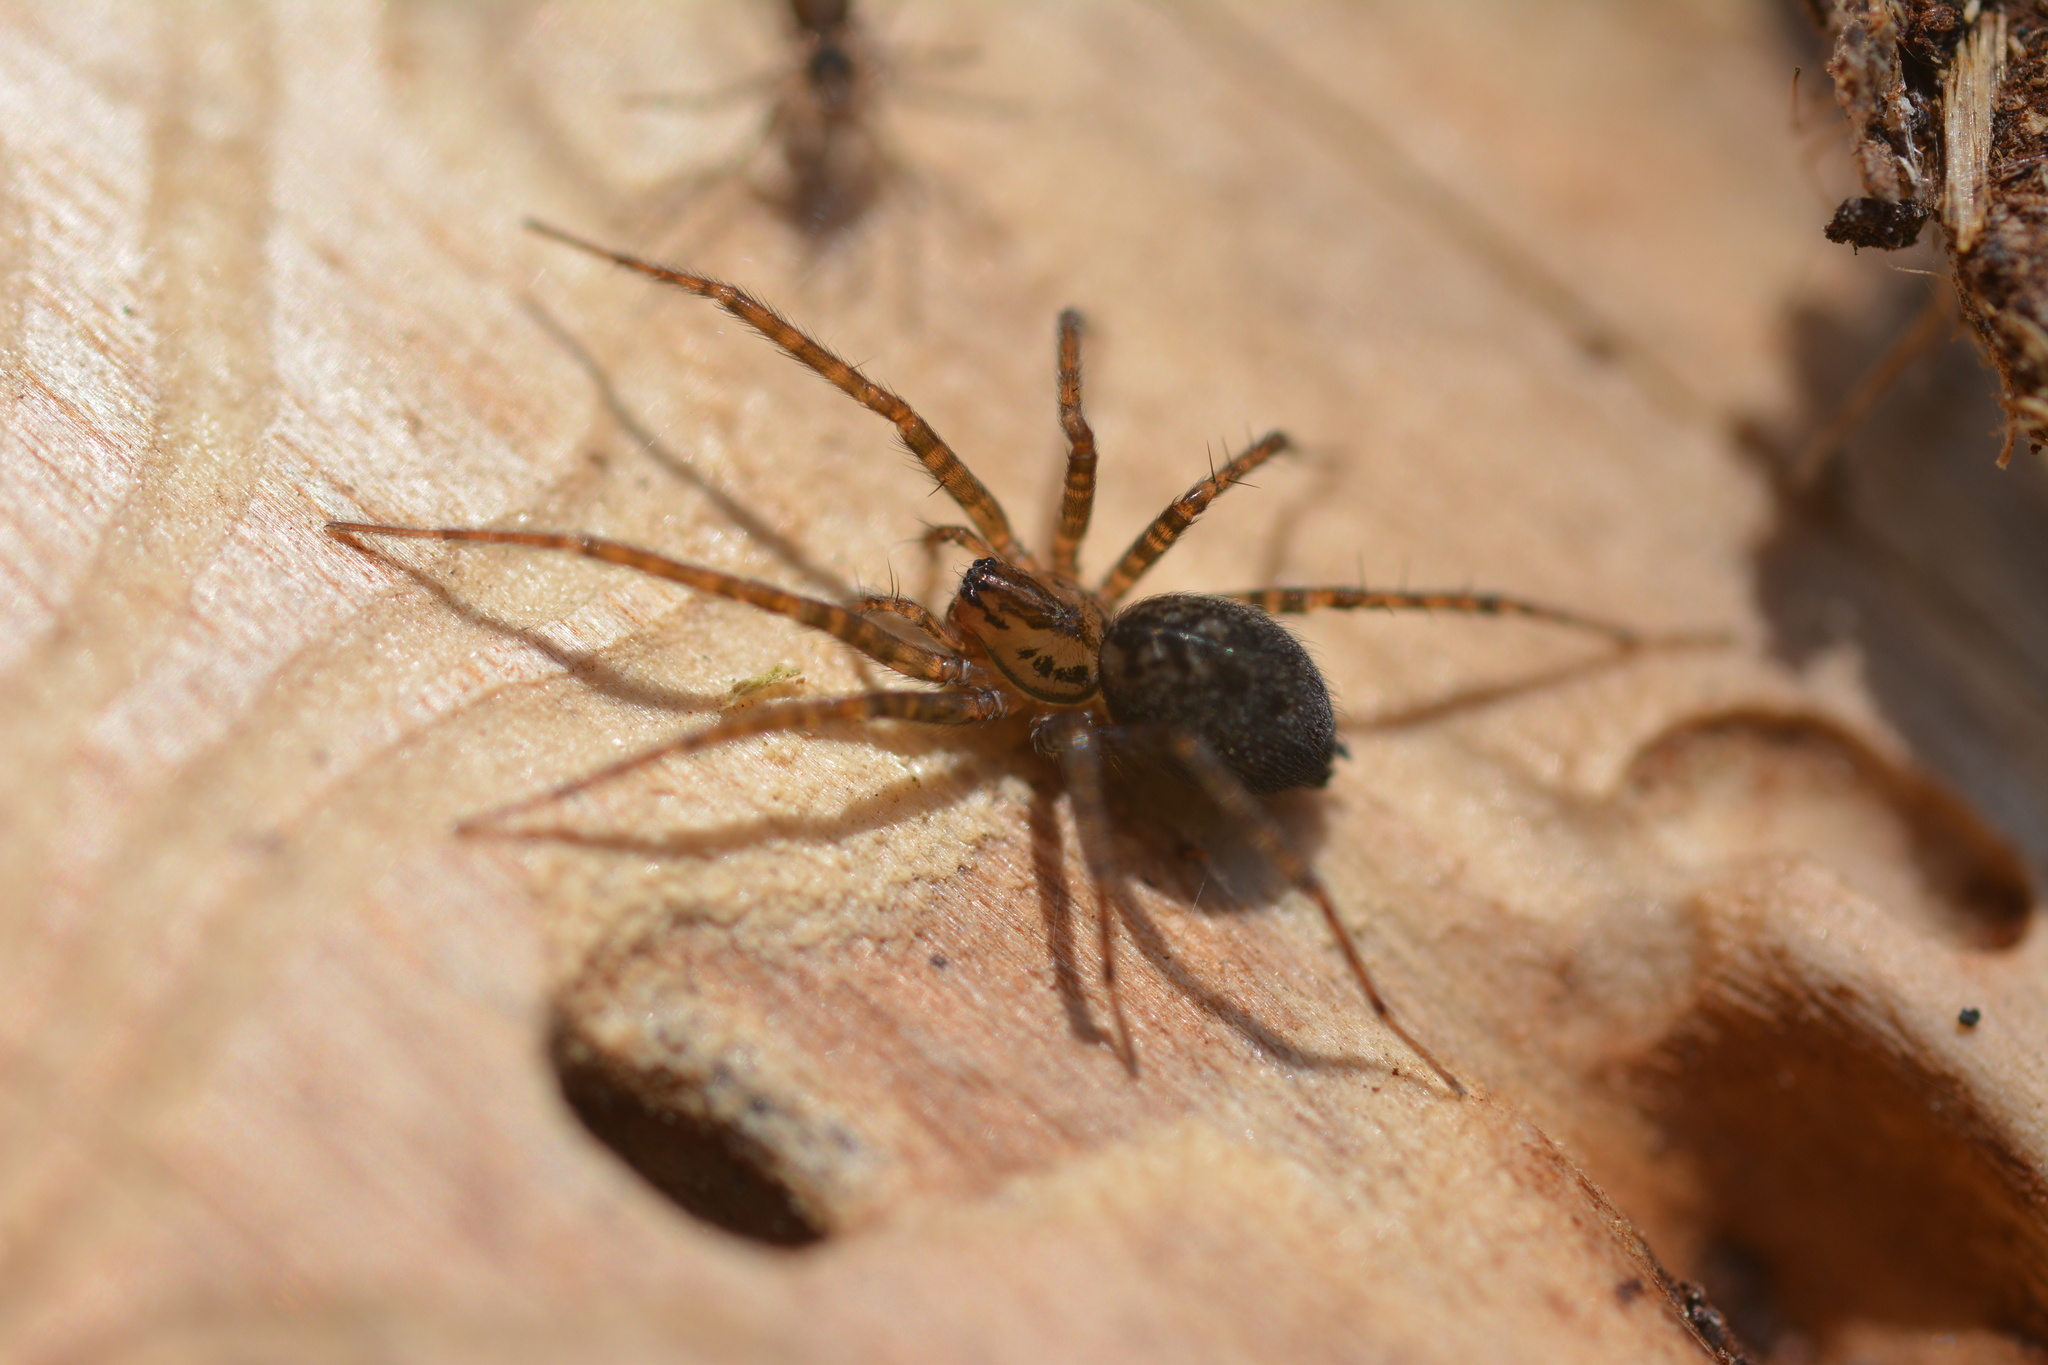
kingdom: Animalia
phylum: Arthropoda
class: Arachnida
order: Araneae
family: Cybaeidae
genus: Calymmaria
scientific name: Calymmaria
